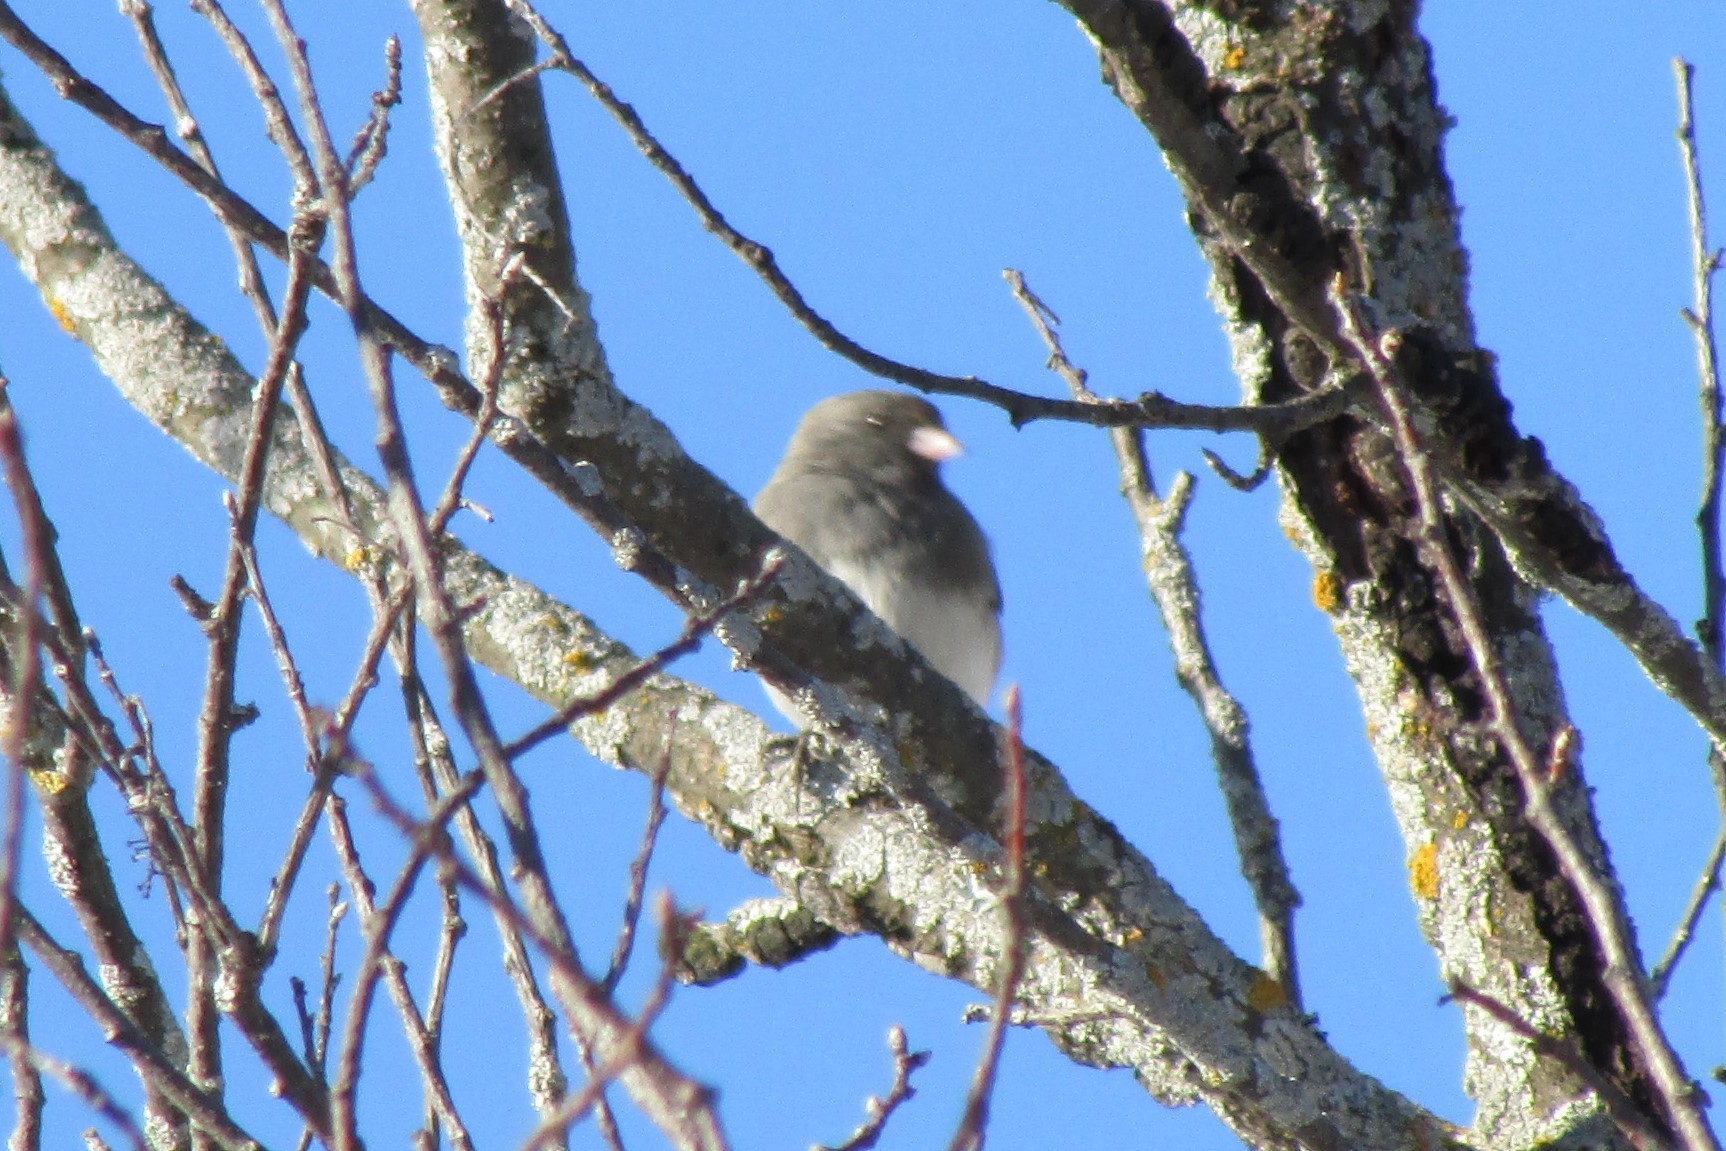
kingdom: Animalia
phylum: Chordata
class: Aves
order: Passeriformes
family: Passerellidae
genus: Junco
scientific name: Junco hyemalis
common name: Dark-eyed junco
